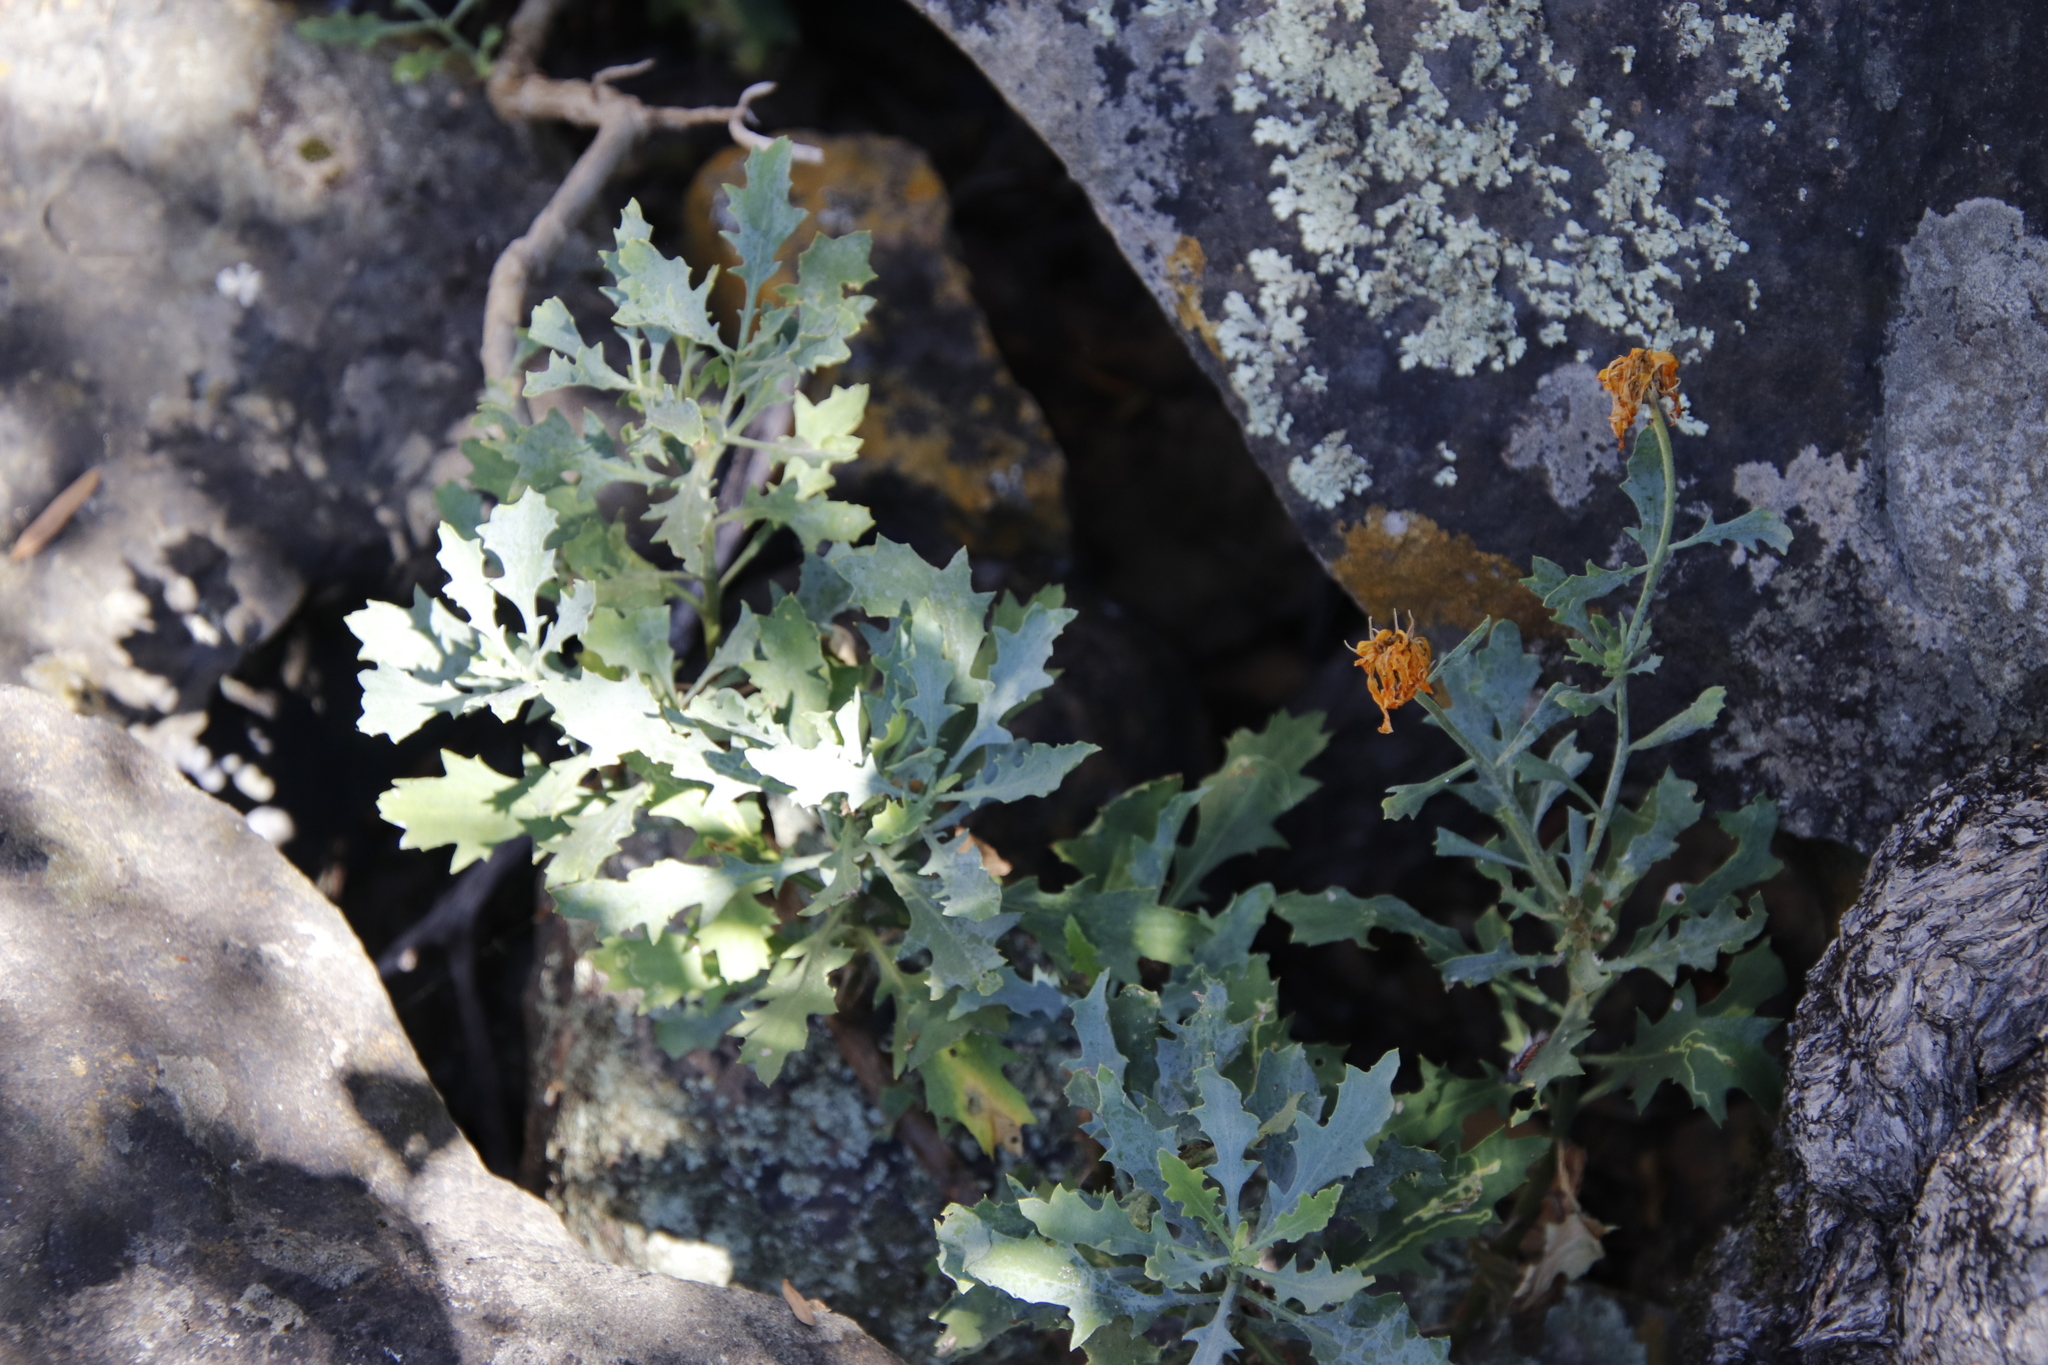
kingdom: Plantae
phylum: Tracheophyta
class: Magnoliopsida
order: Asterales
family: Asteraceae
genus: Dimorphotheca
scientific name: Dimorphotheca chrysanthemifolia
